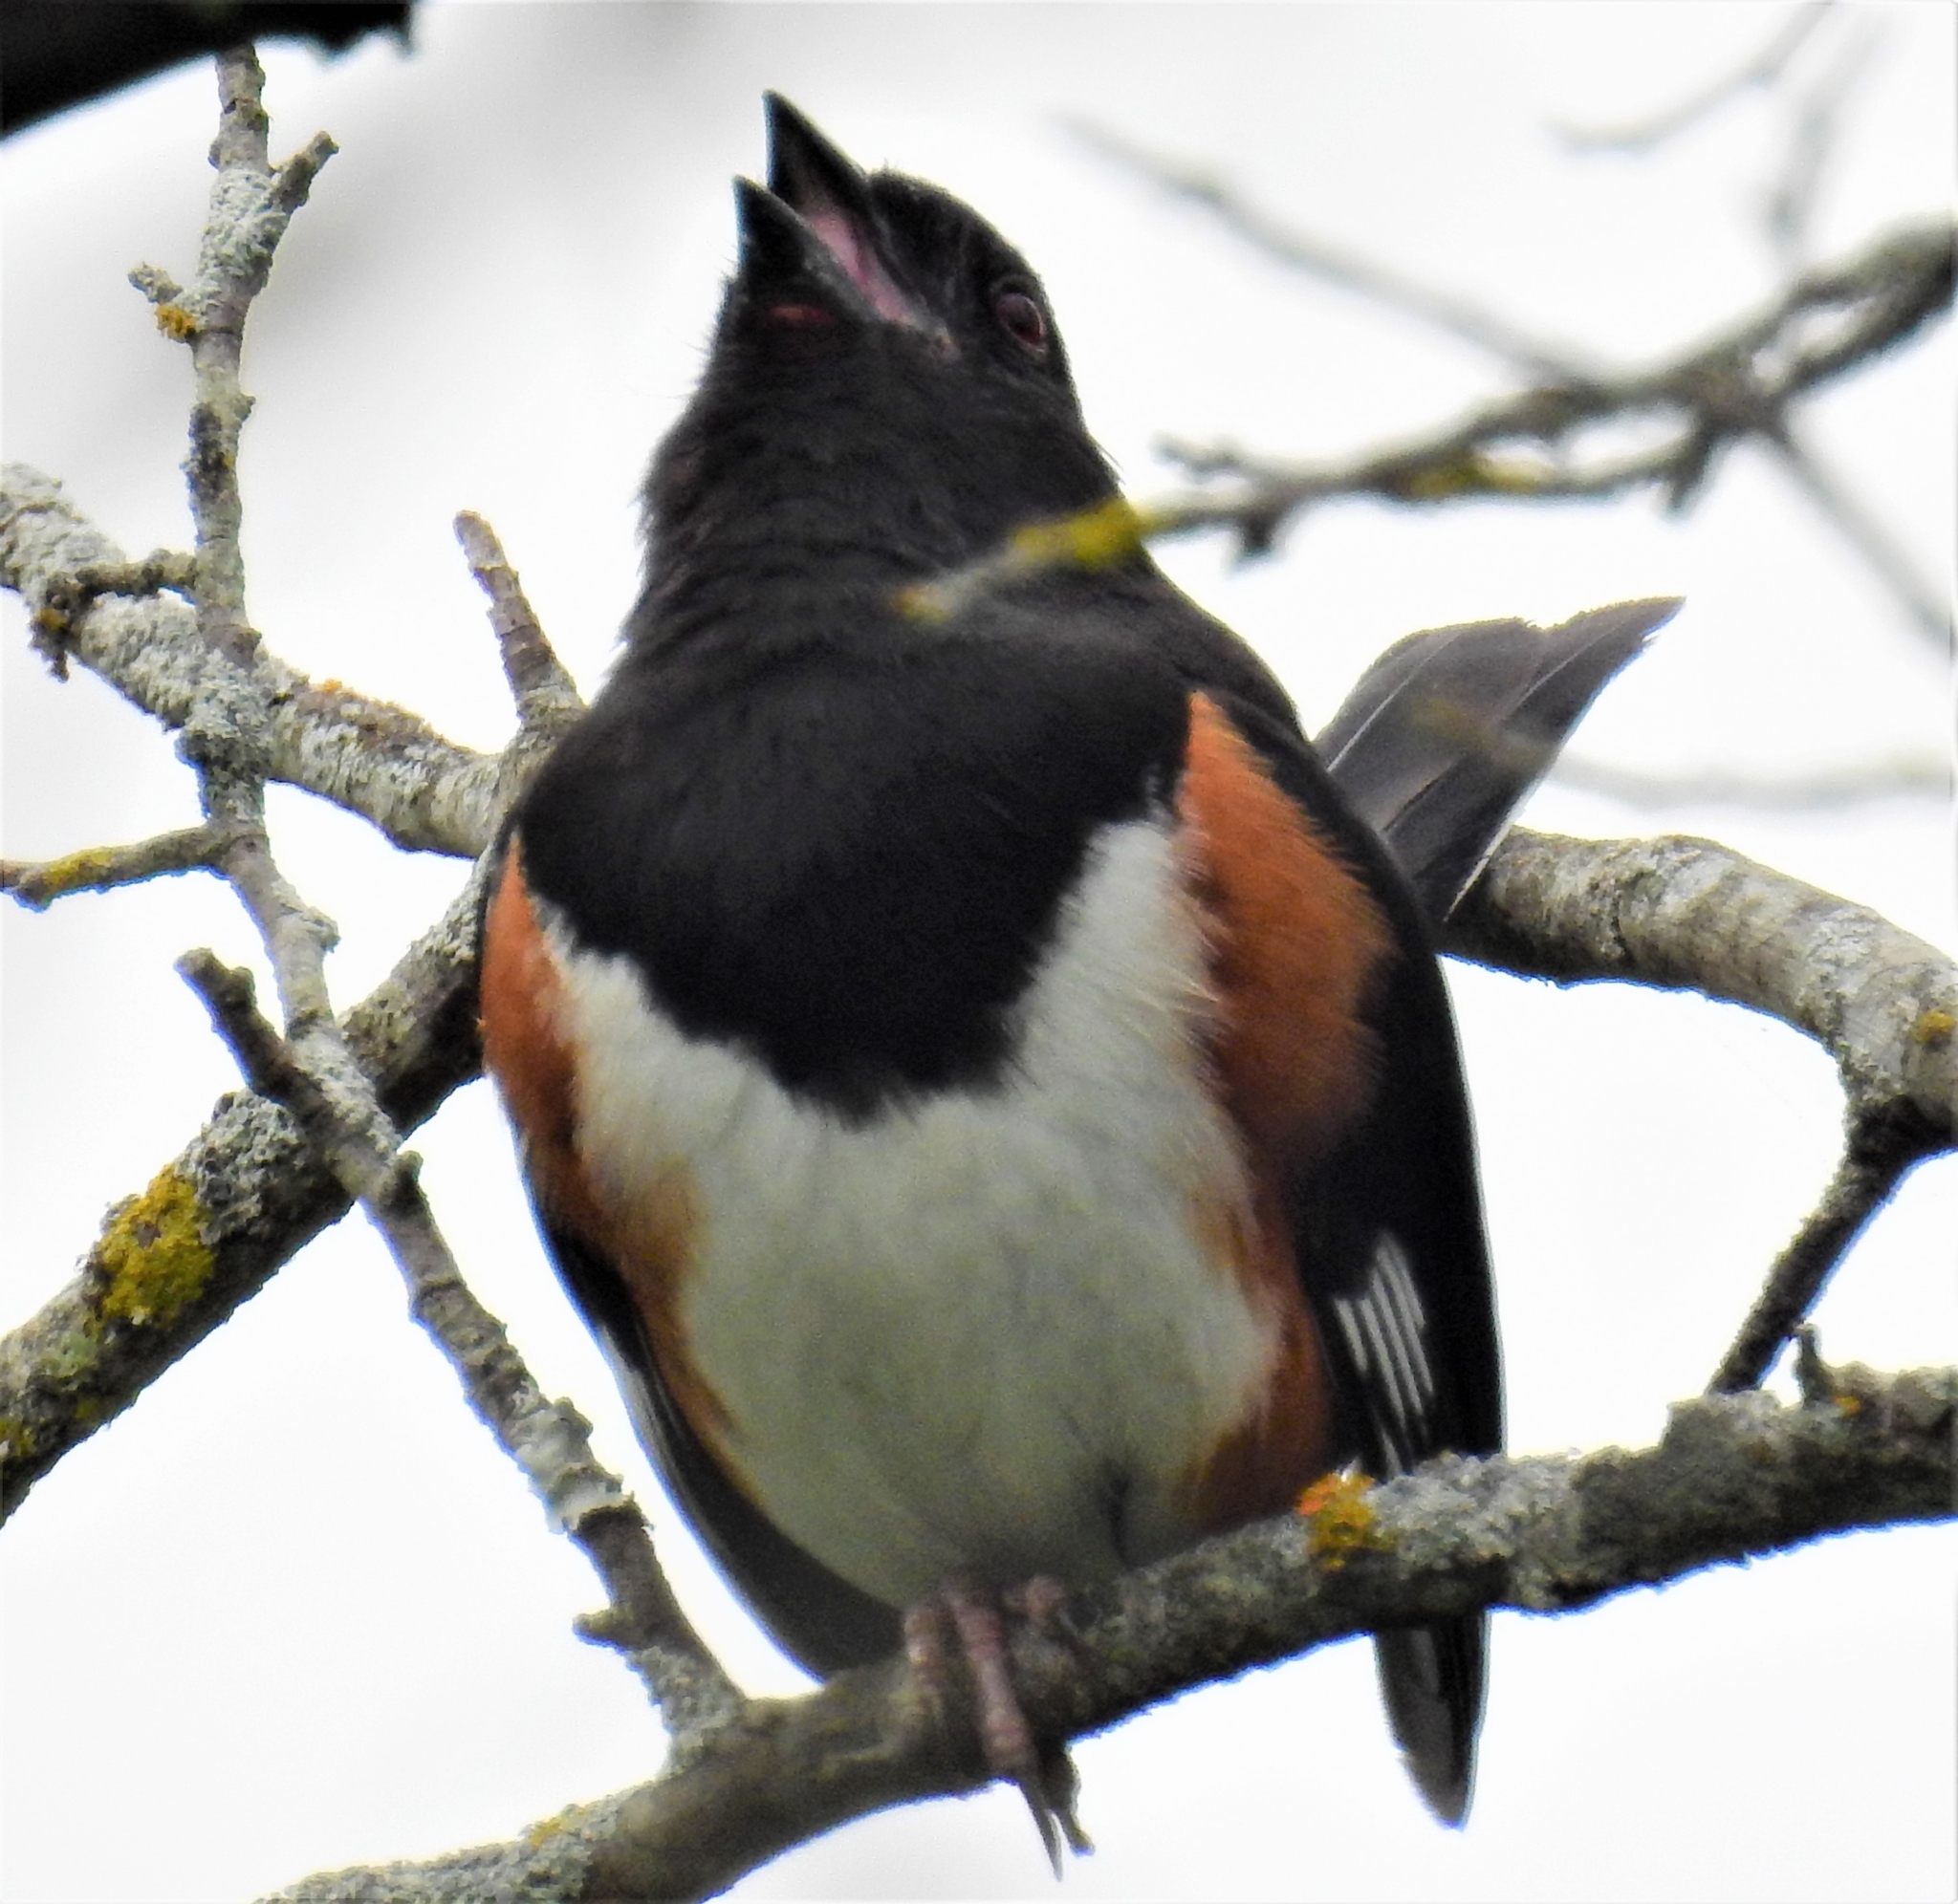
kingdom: Animalia
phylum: Chordata
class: Aves
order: Passeriformes
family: Passerellidae
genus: Pipilo
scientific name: Pipilo erythrophthalmus
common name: Eastern towhee
